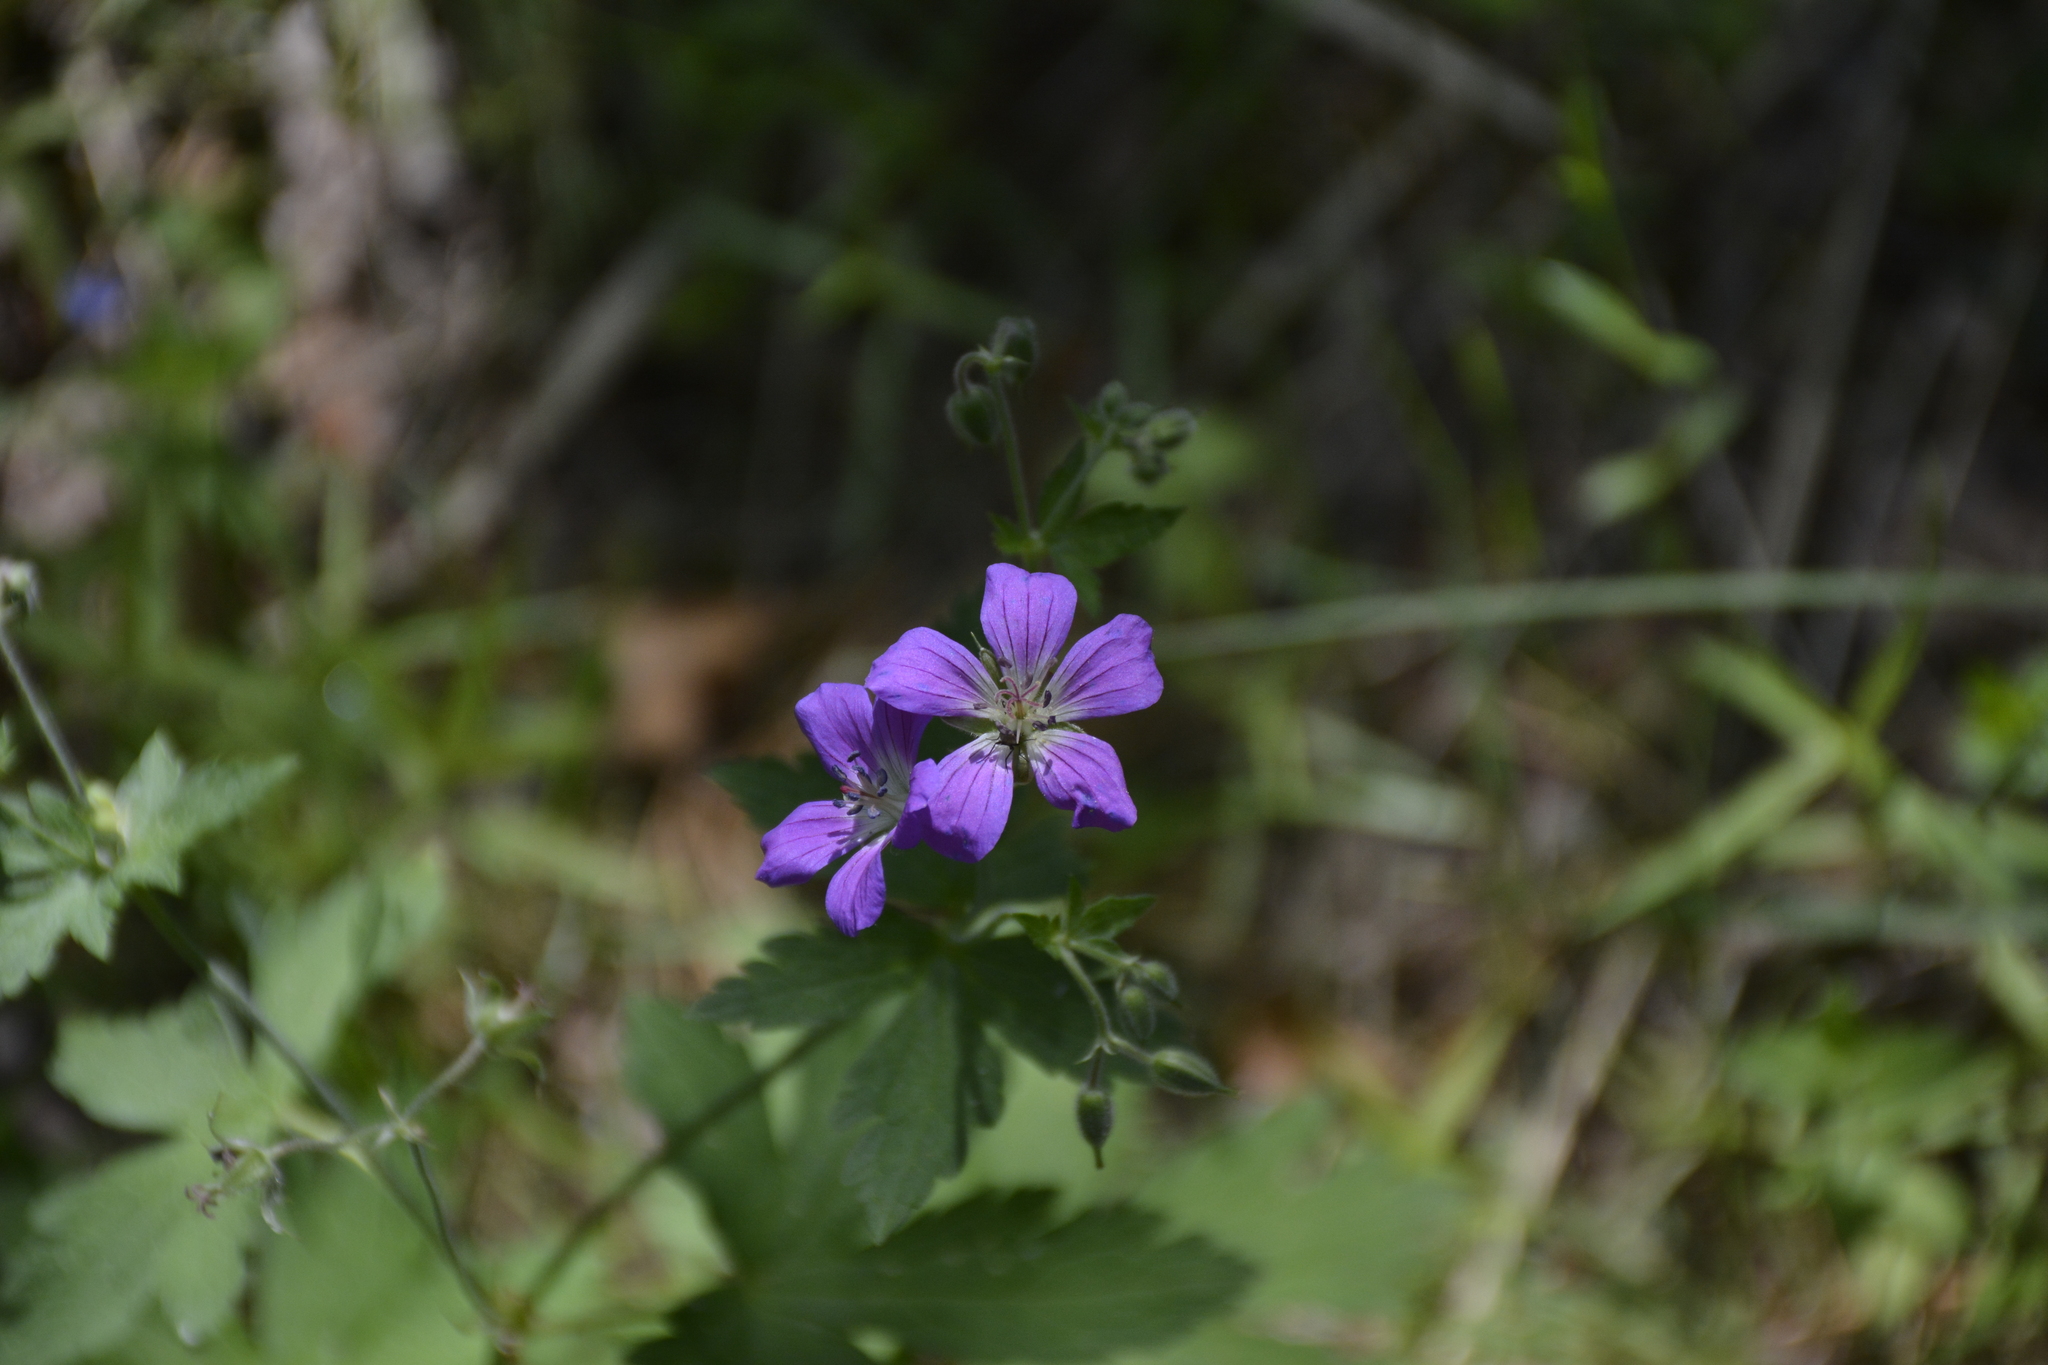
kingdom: Plantae
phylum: Tracheophyta
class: Magnoliopsida
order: Geraniales
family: Geraniaceae
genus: Geranium
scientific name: Geranium sylvaticum
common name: Wood crane's-bill
